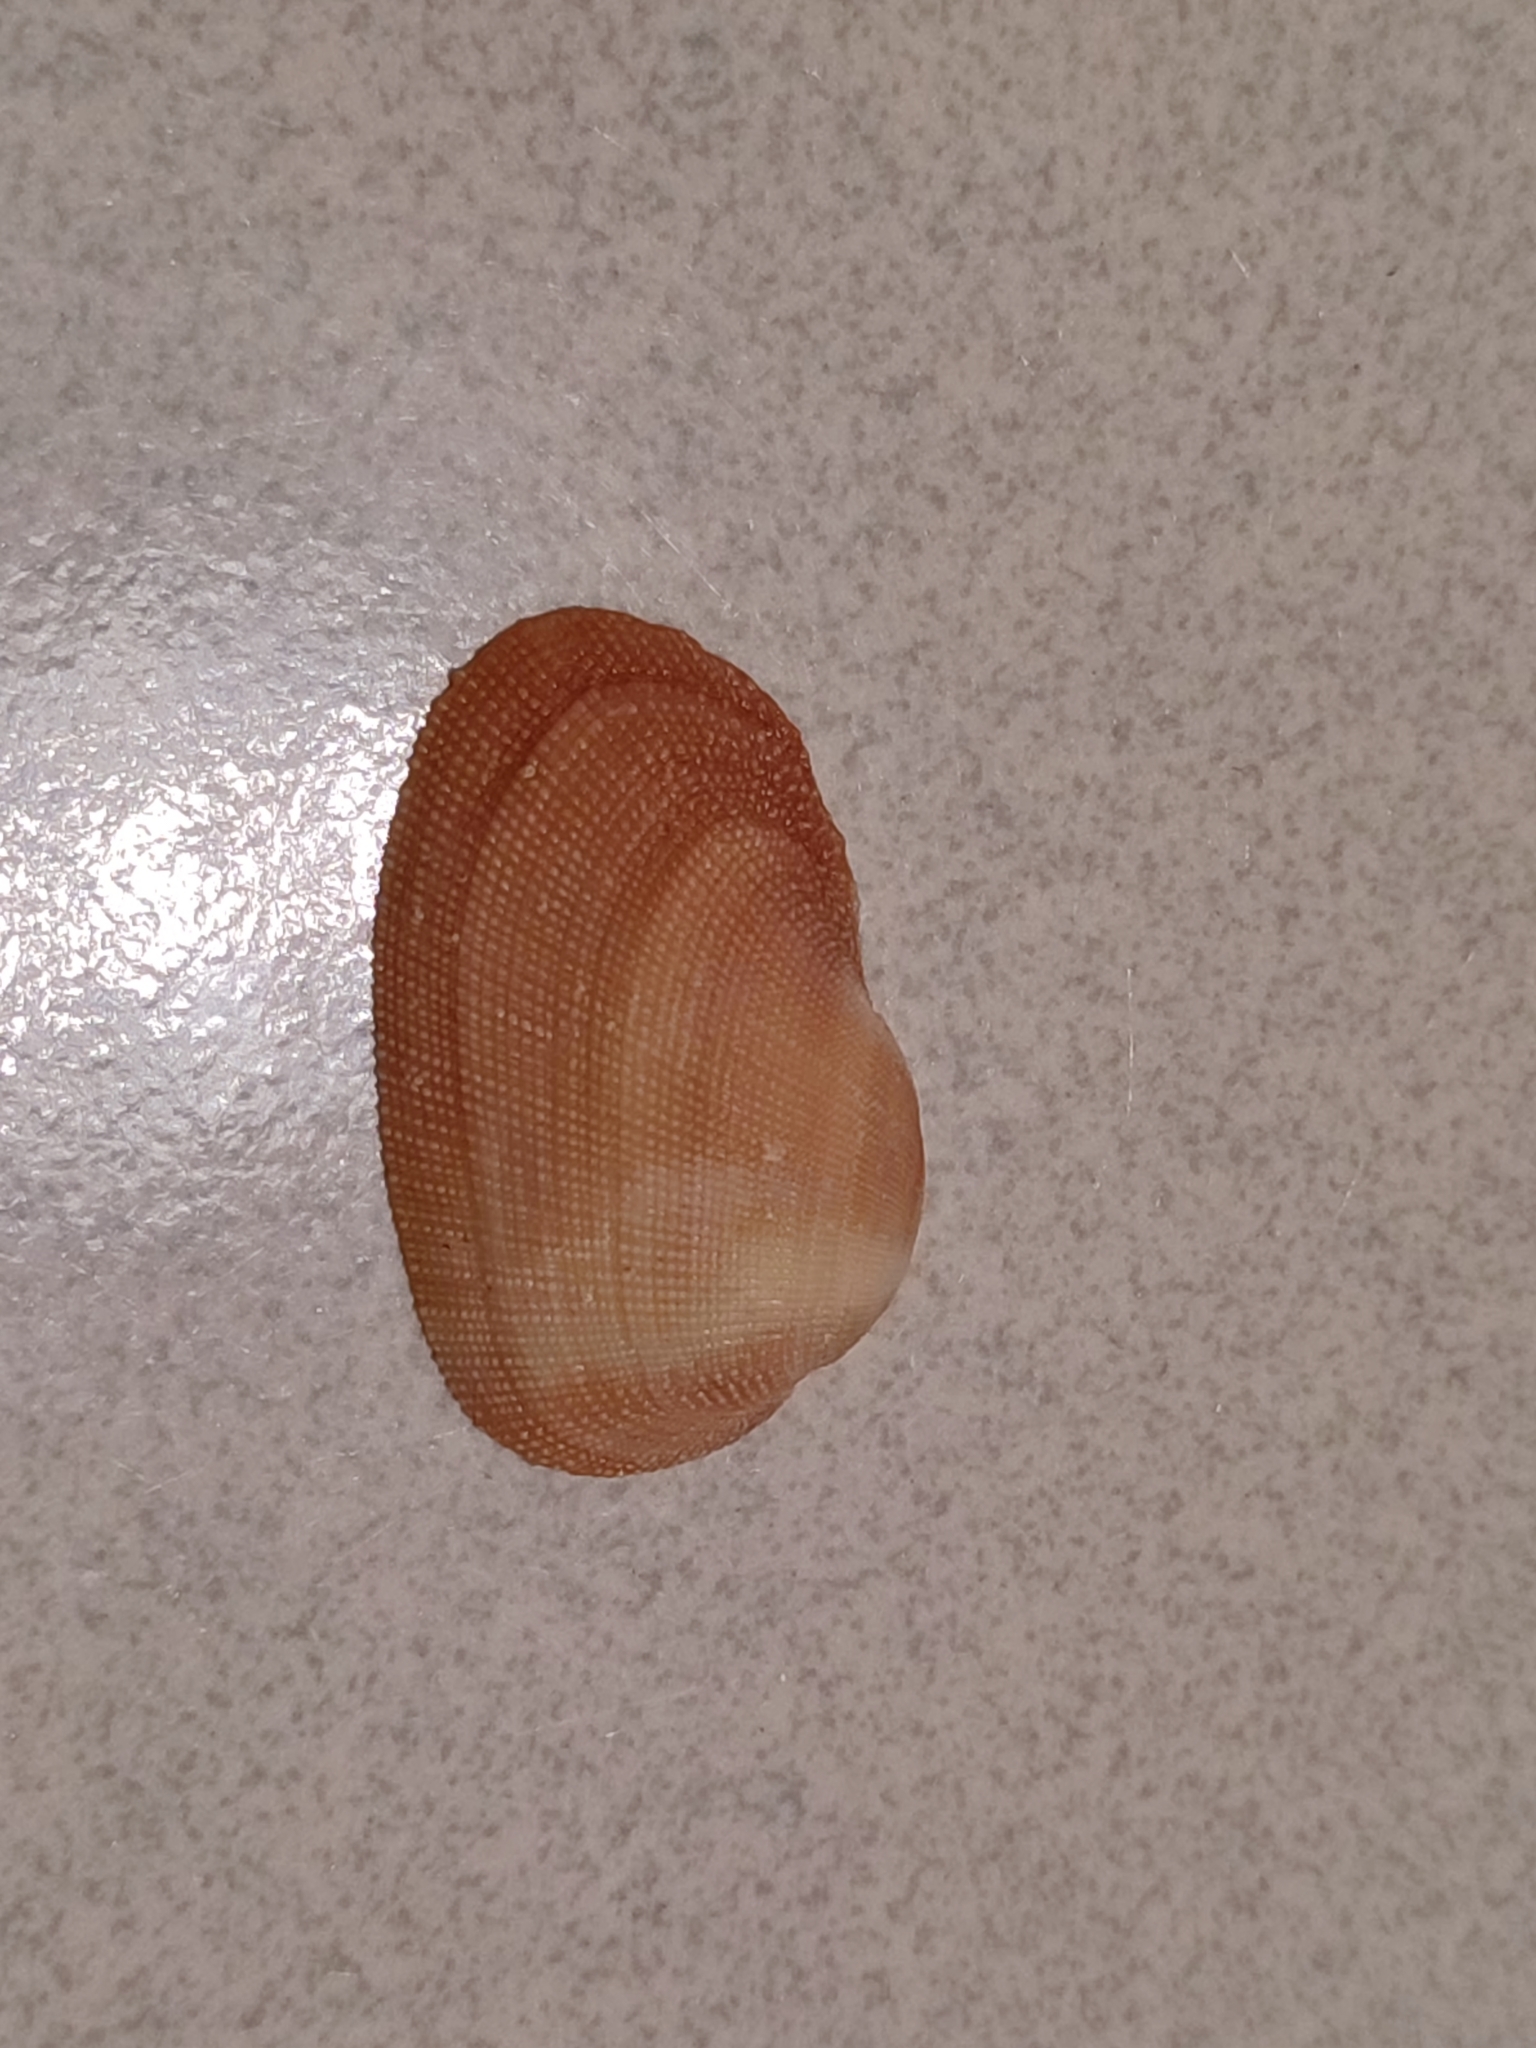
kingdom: Animalia
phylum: Mollusca
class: Bivalvia
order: Arcida
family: Arcidae
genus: Barbatia
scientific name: Barbatia amygdalumtostum
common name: Burnt-almond ark
